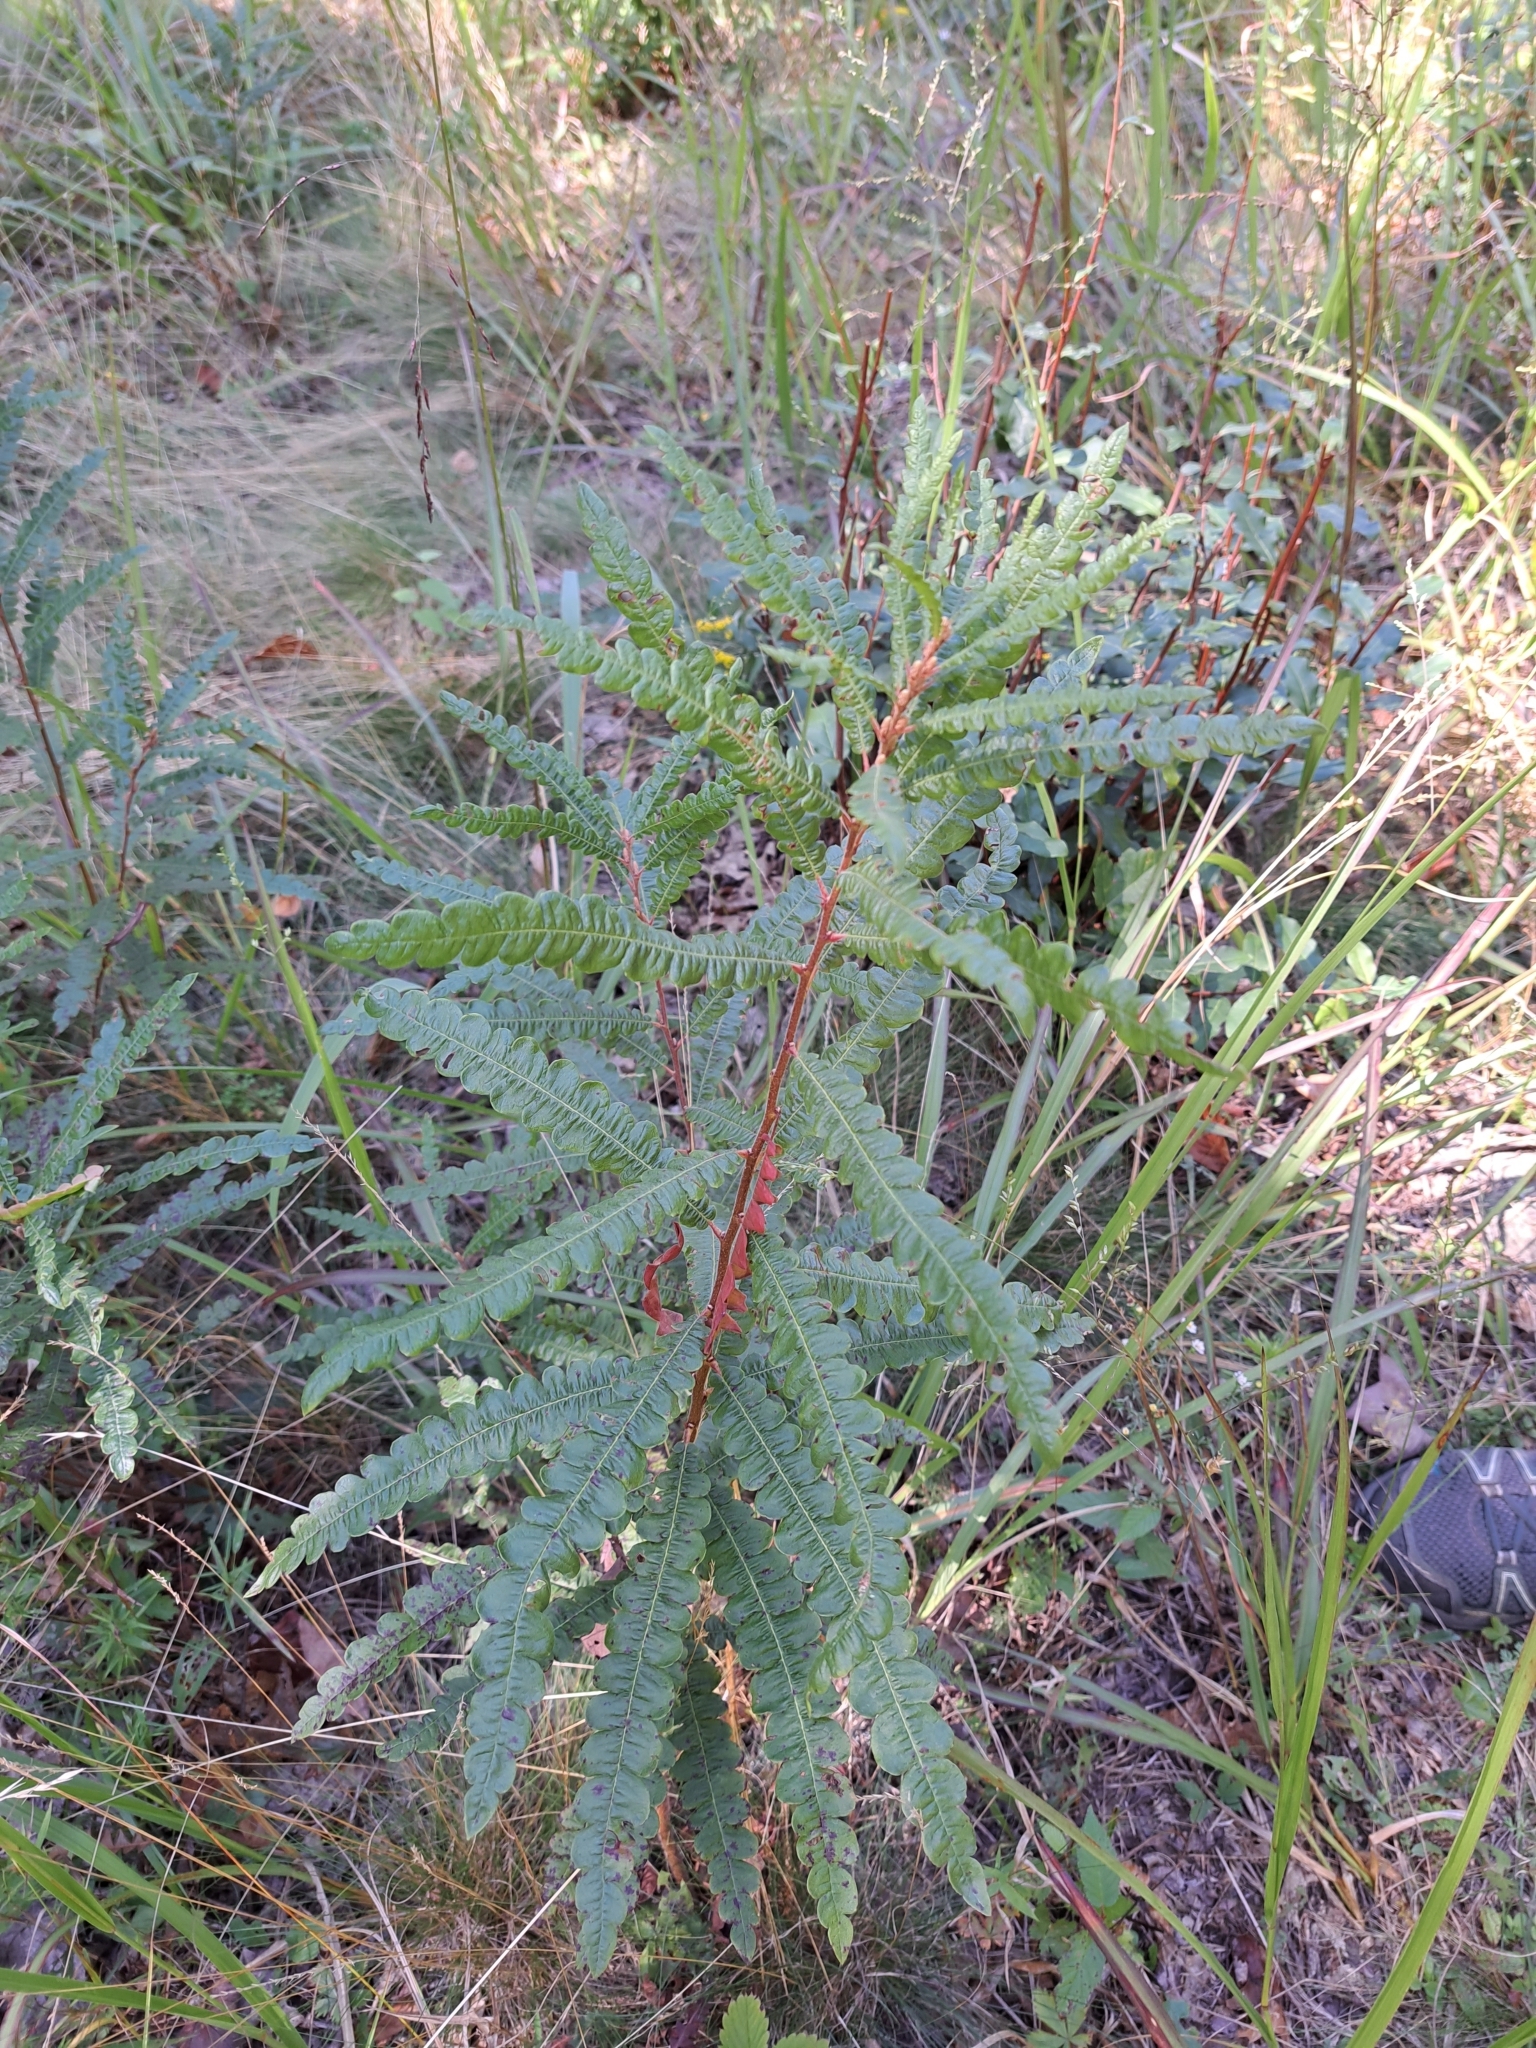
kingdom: Plantae
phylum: Tracheophyta
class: Magnoliopsida
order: Fagales
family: Myricaceae
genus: Comptonia
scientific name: Comptonia peregrina
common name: Sweet-fern
